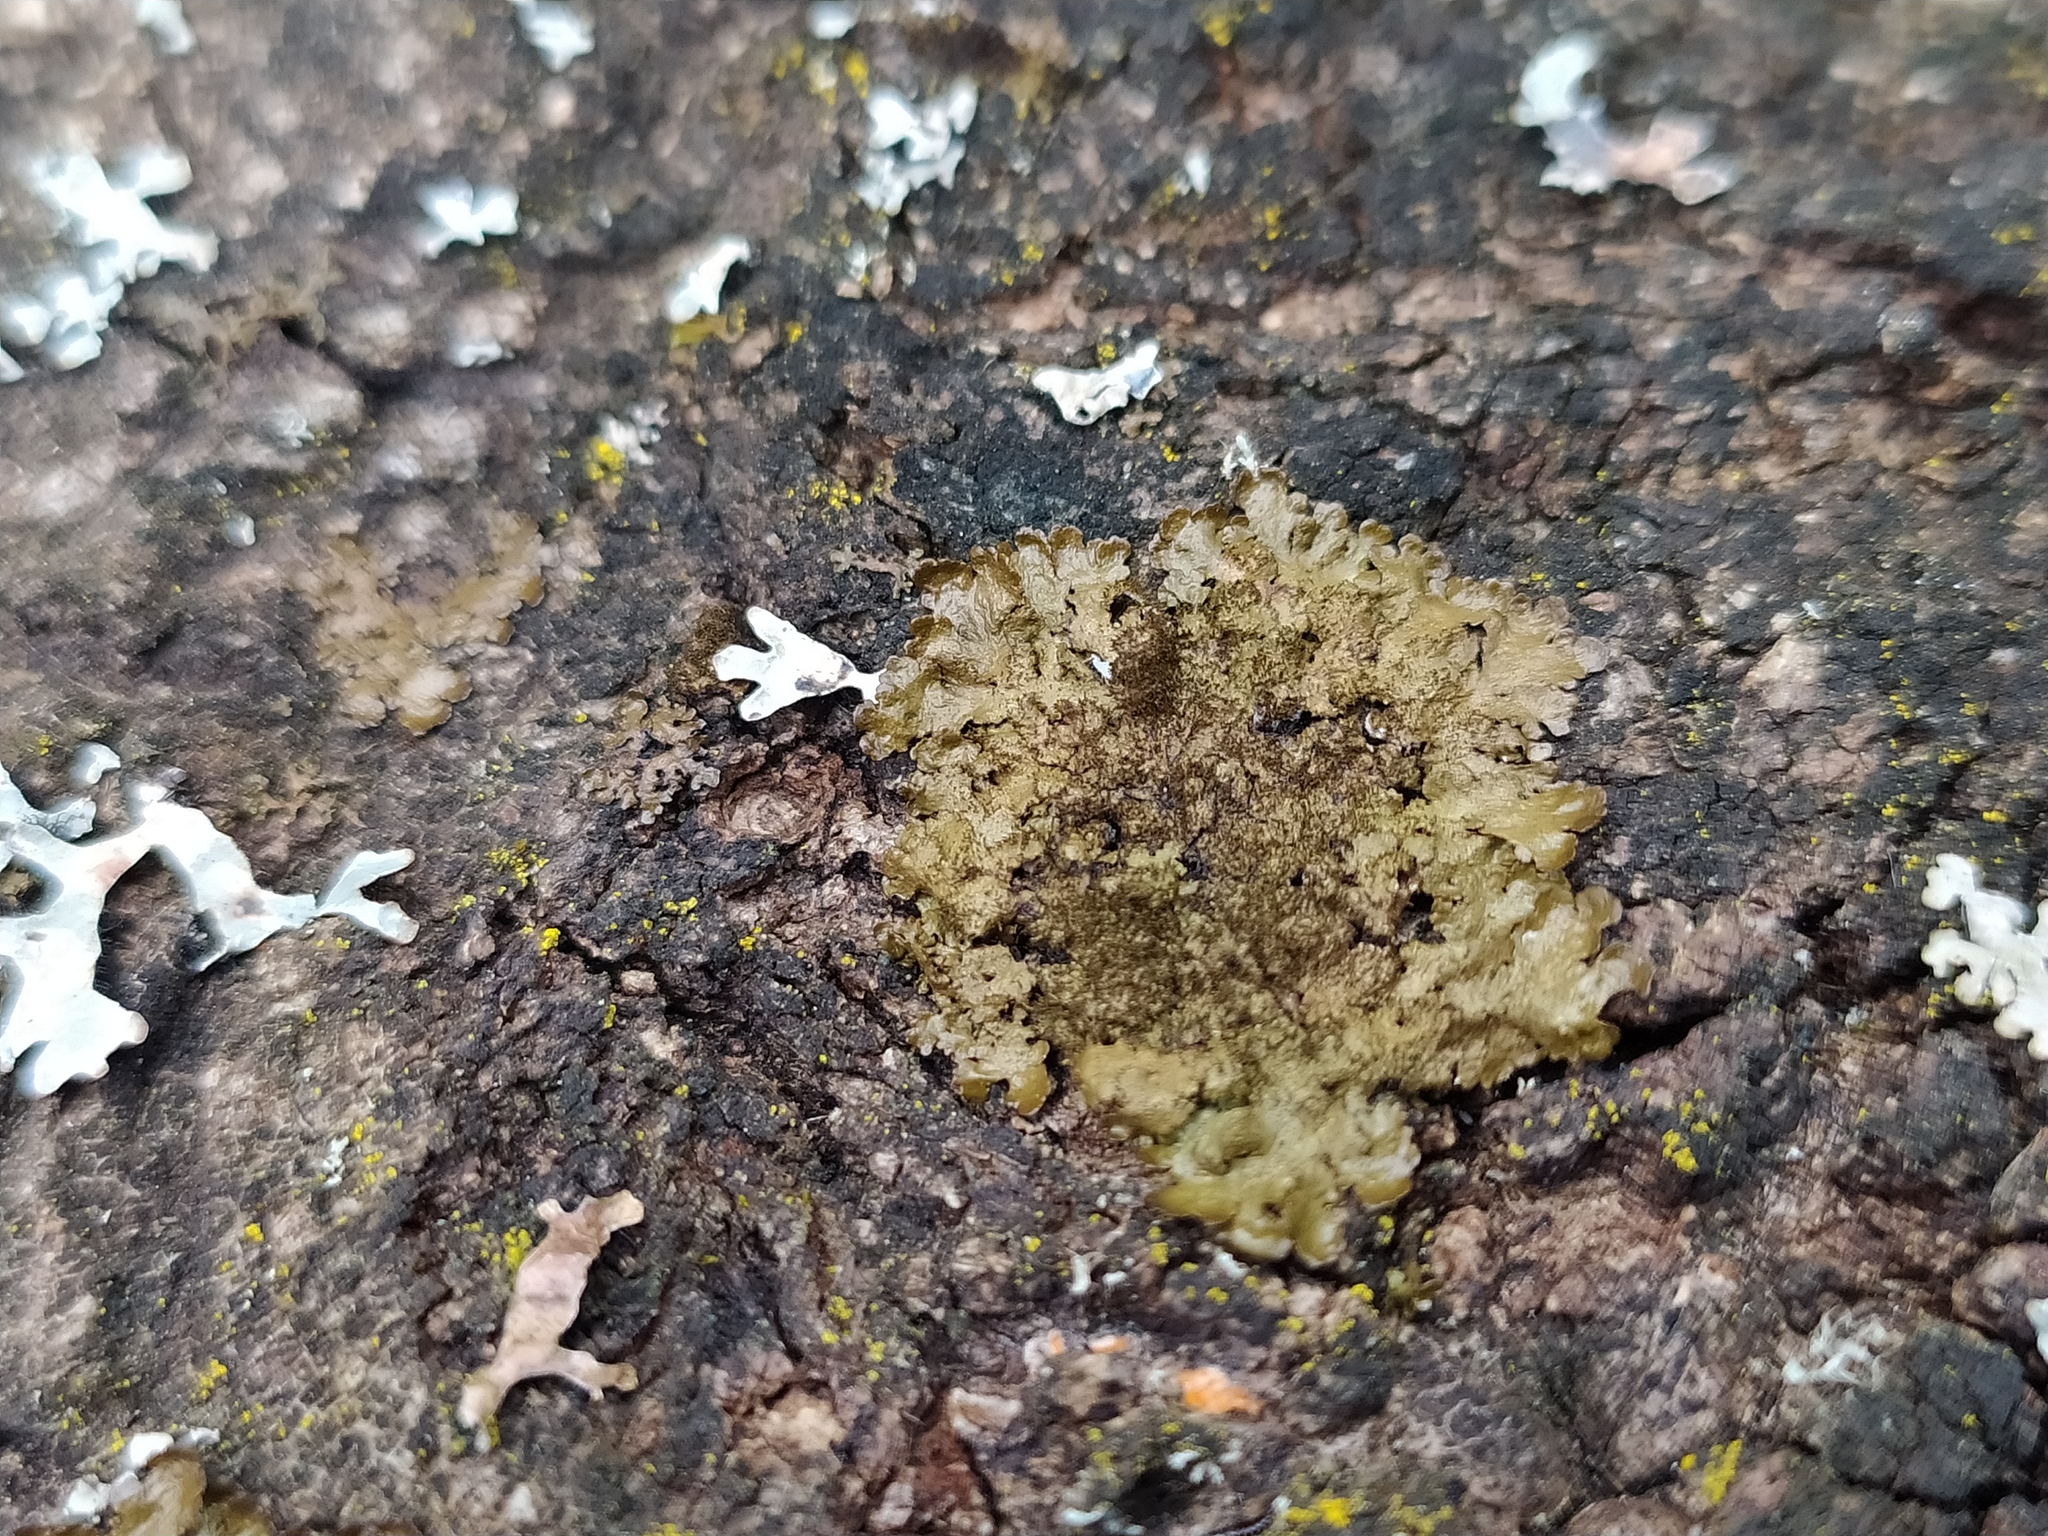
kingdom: Fungi
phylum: Ascomycota
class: Lecanoromycetes
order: Lecanorales
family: Parmeliaceae
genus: Melanelixia
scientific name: Melanelixia glabratula
